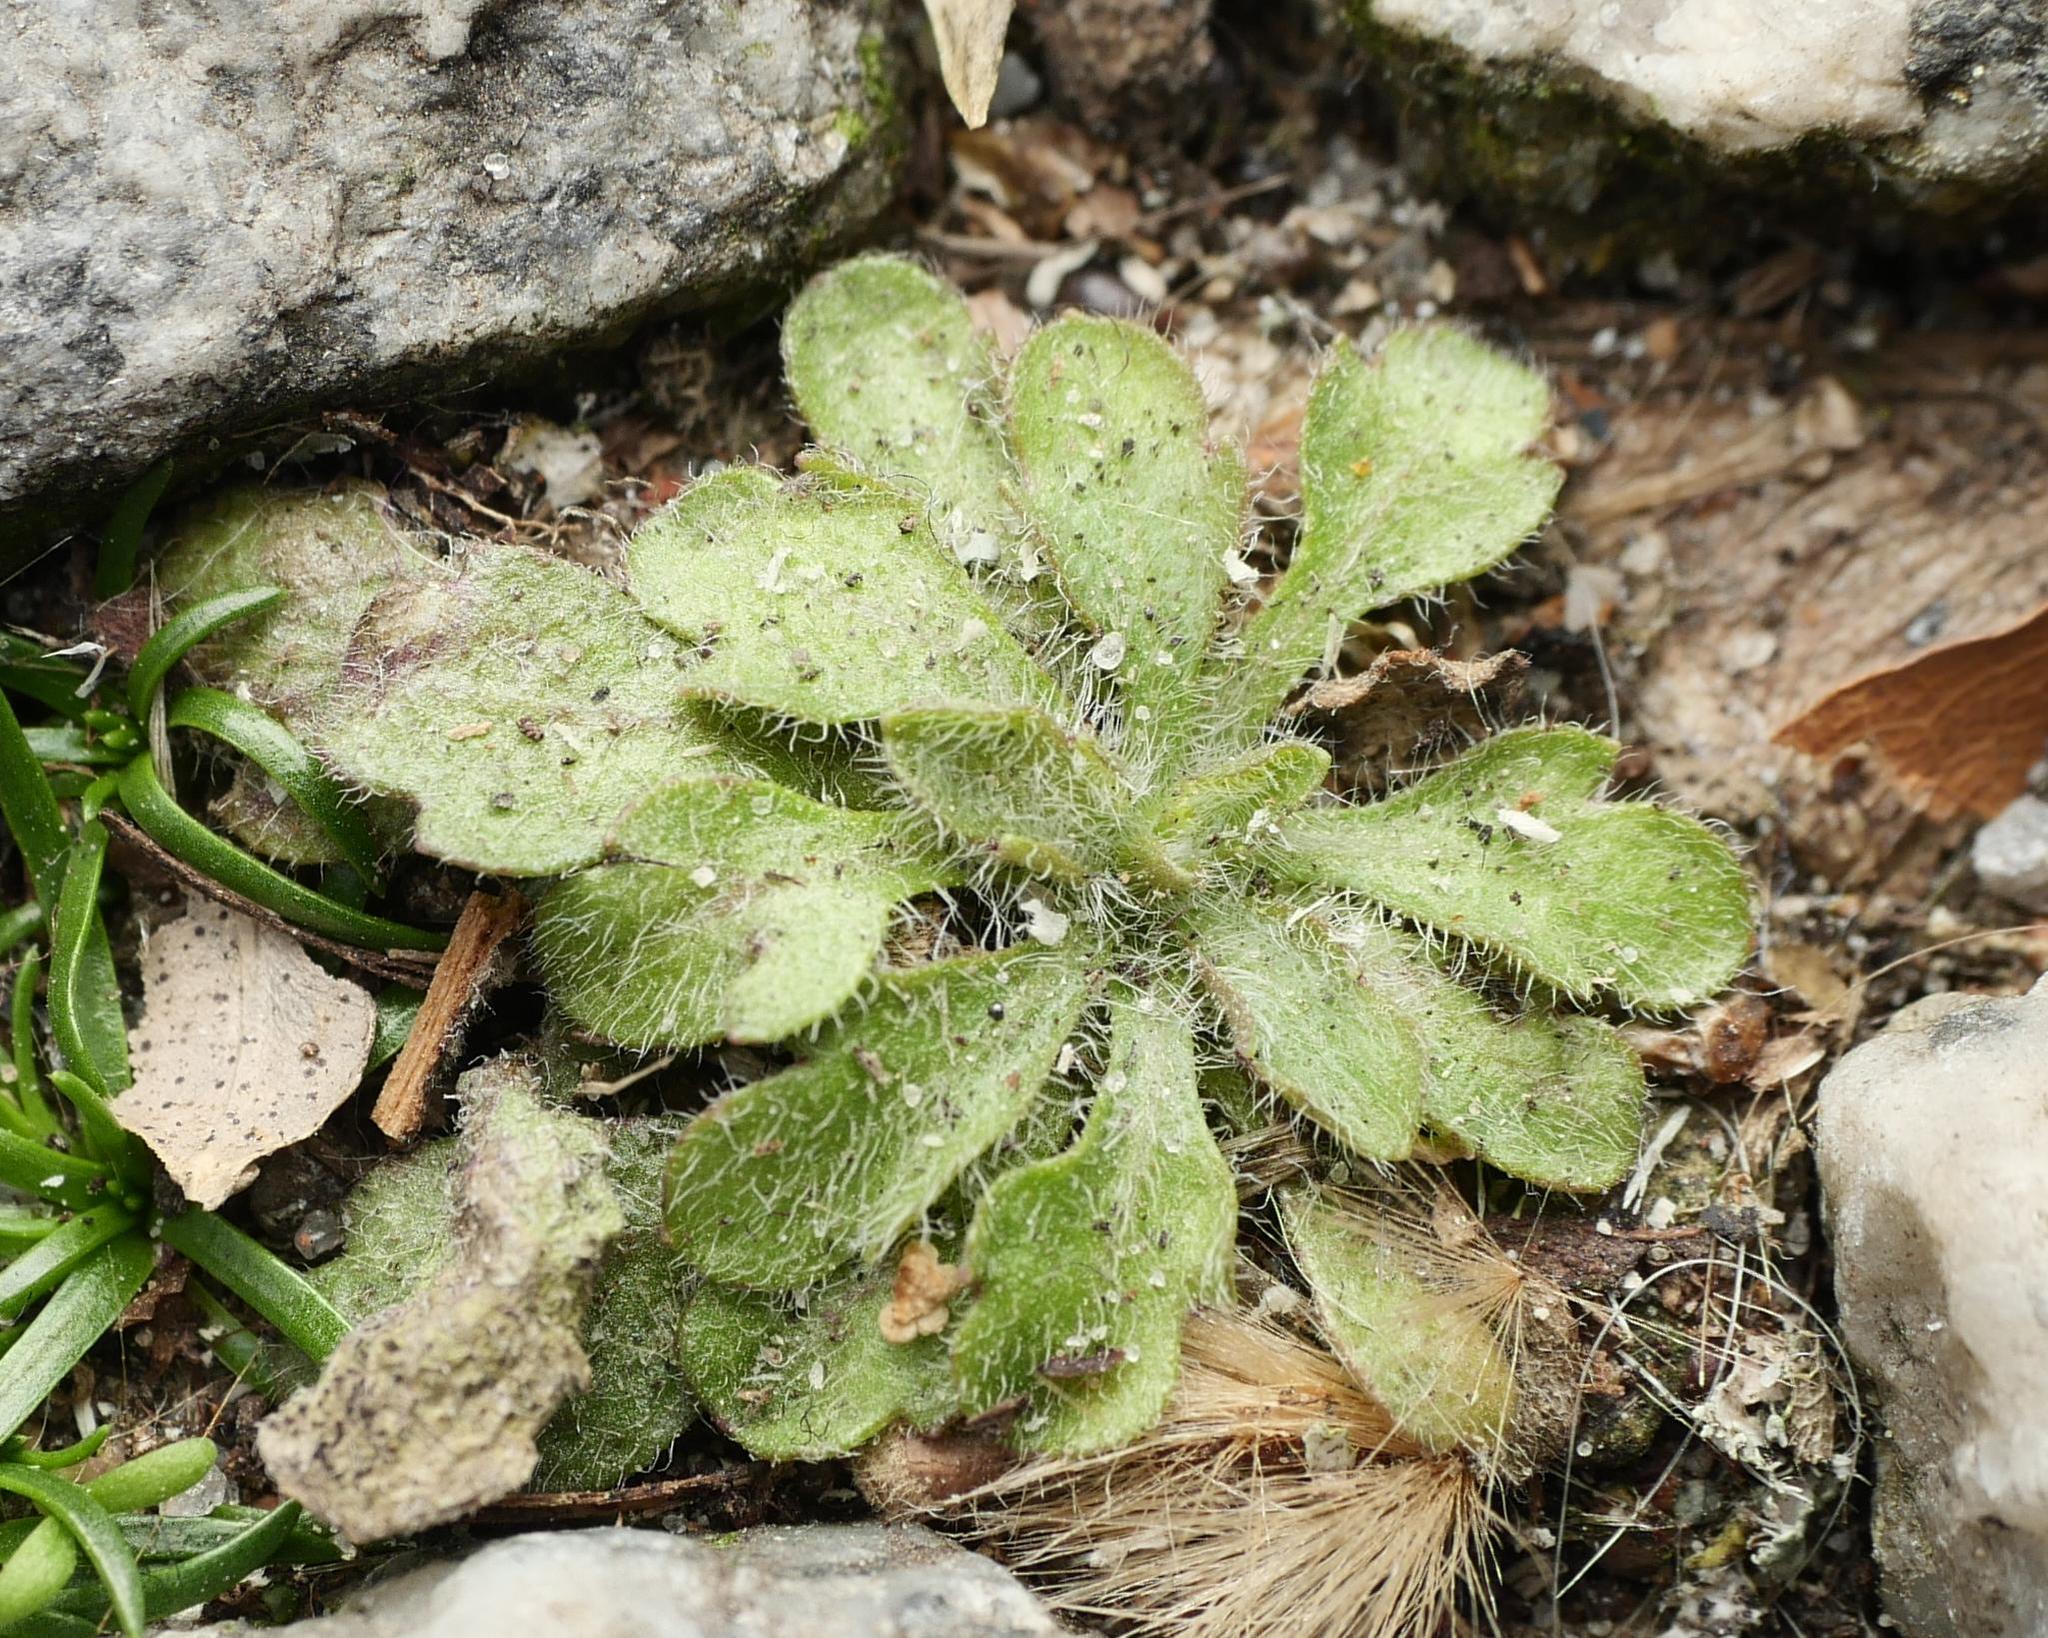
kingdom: Plantae
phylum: Tracheophyta
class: Magnoliopsida
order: Asterales
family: Asteraceae
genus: Erigeron
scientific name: Erigeron canadensis
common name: Canadian fleabane
